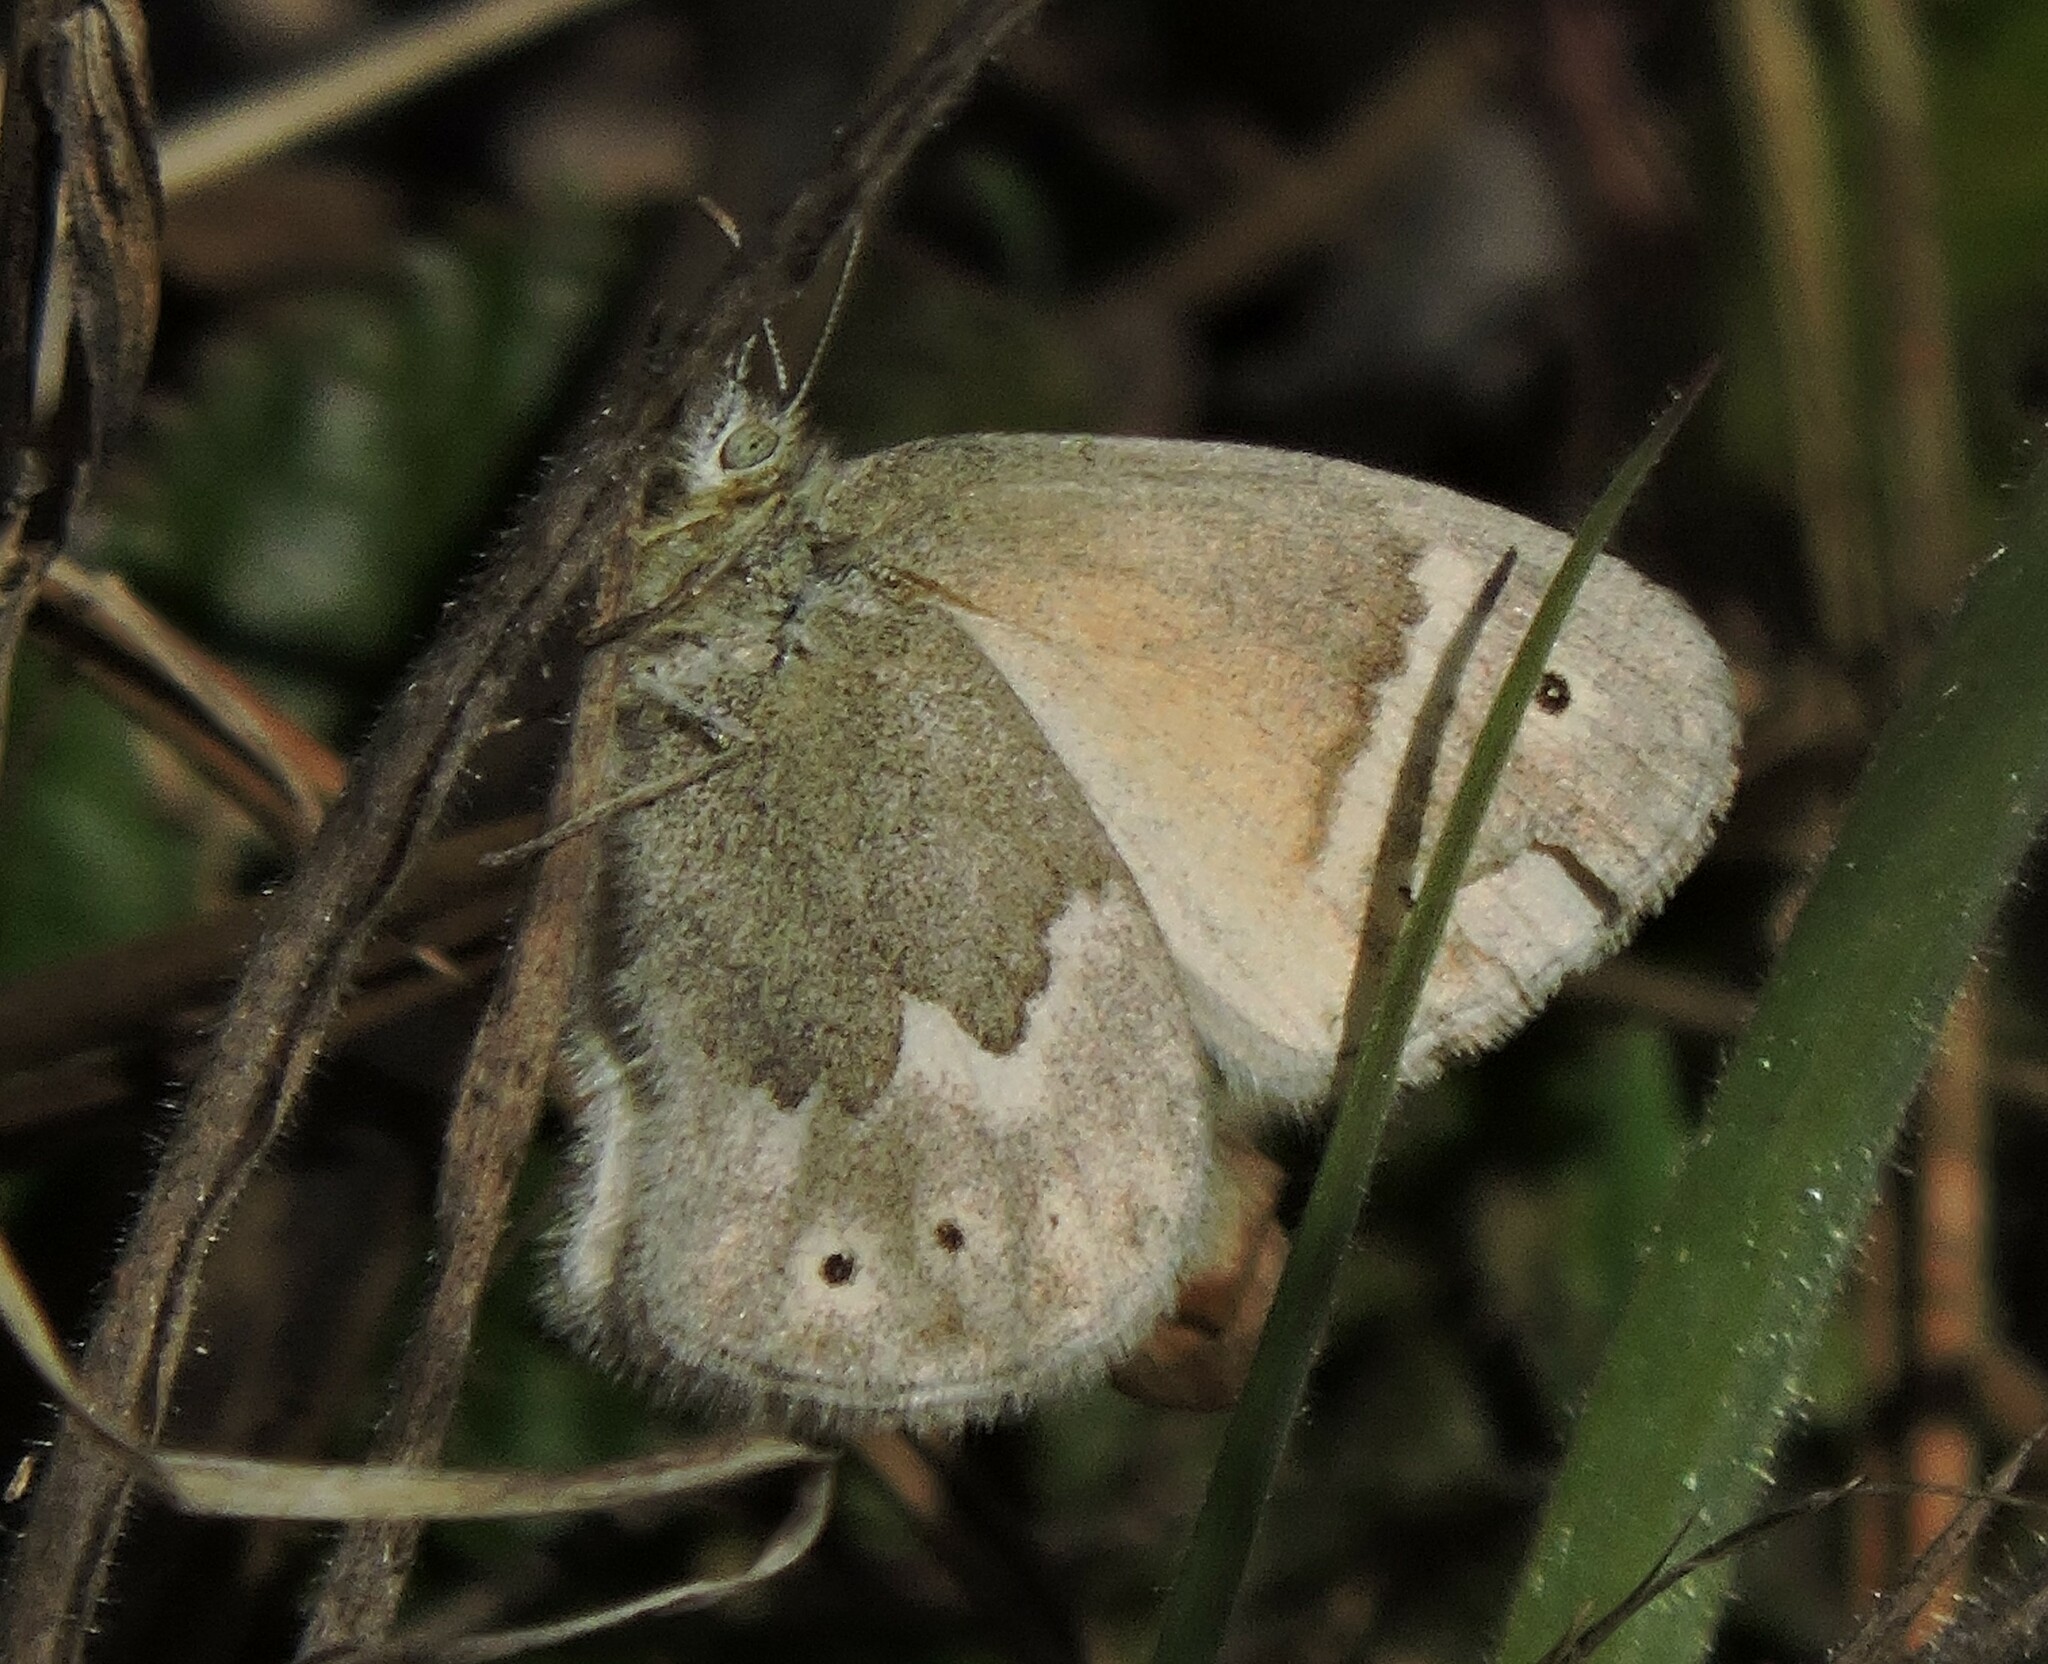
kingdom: Animalia
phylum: Arthropoda
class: Insecta
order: Lepidoptera
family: Nymphalidae
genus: Coenonympha
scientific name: Coenonympha california
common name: Common ringlet
